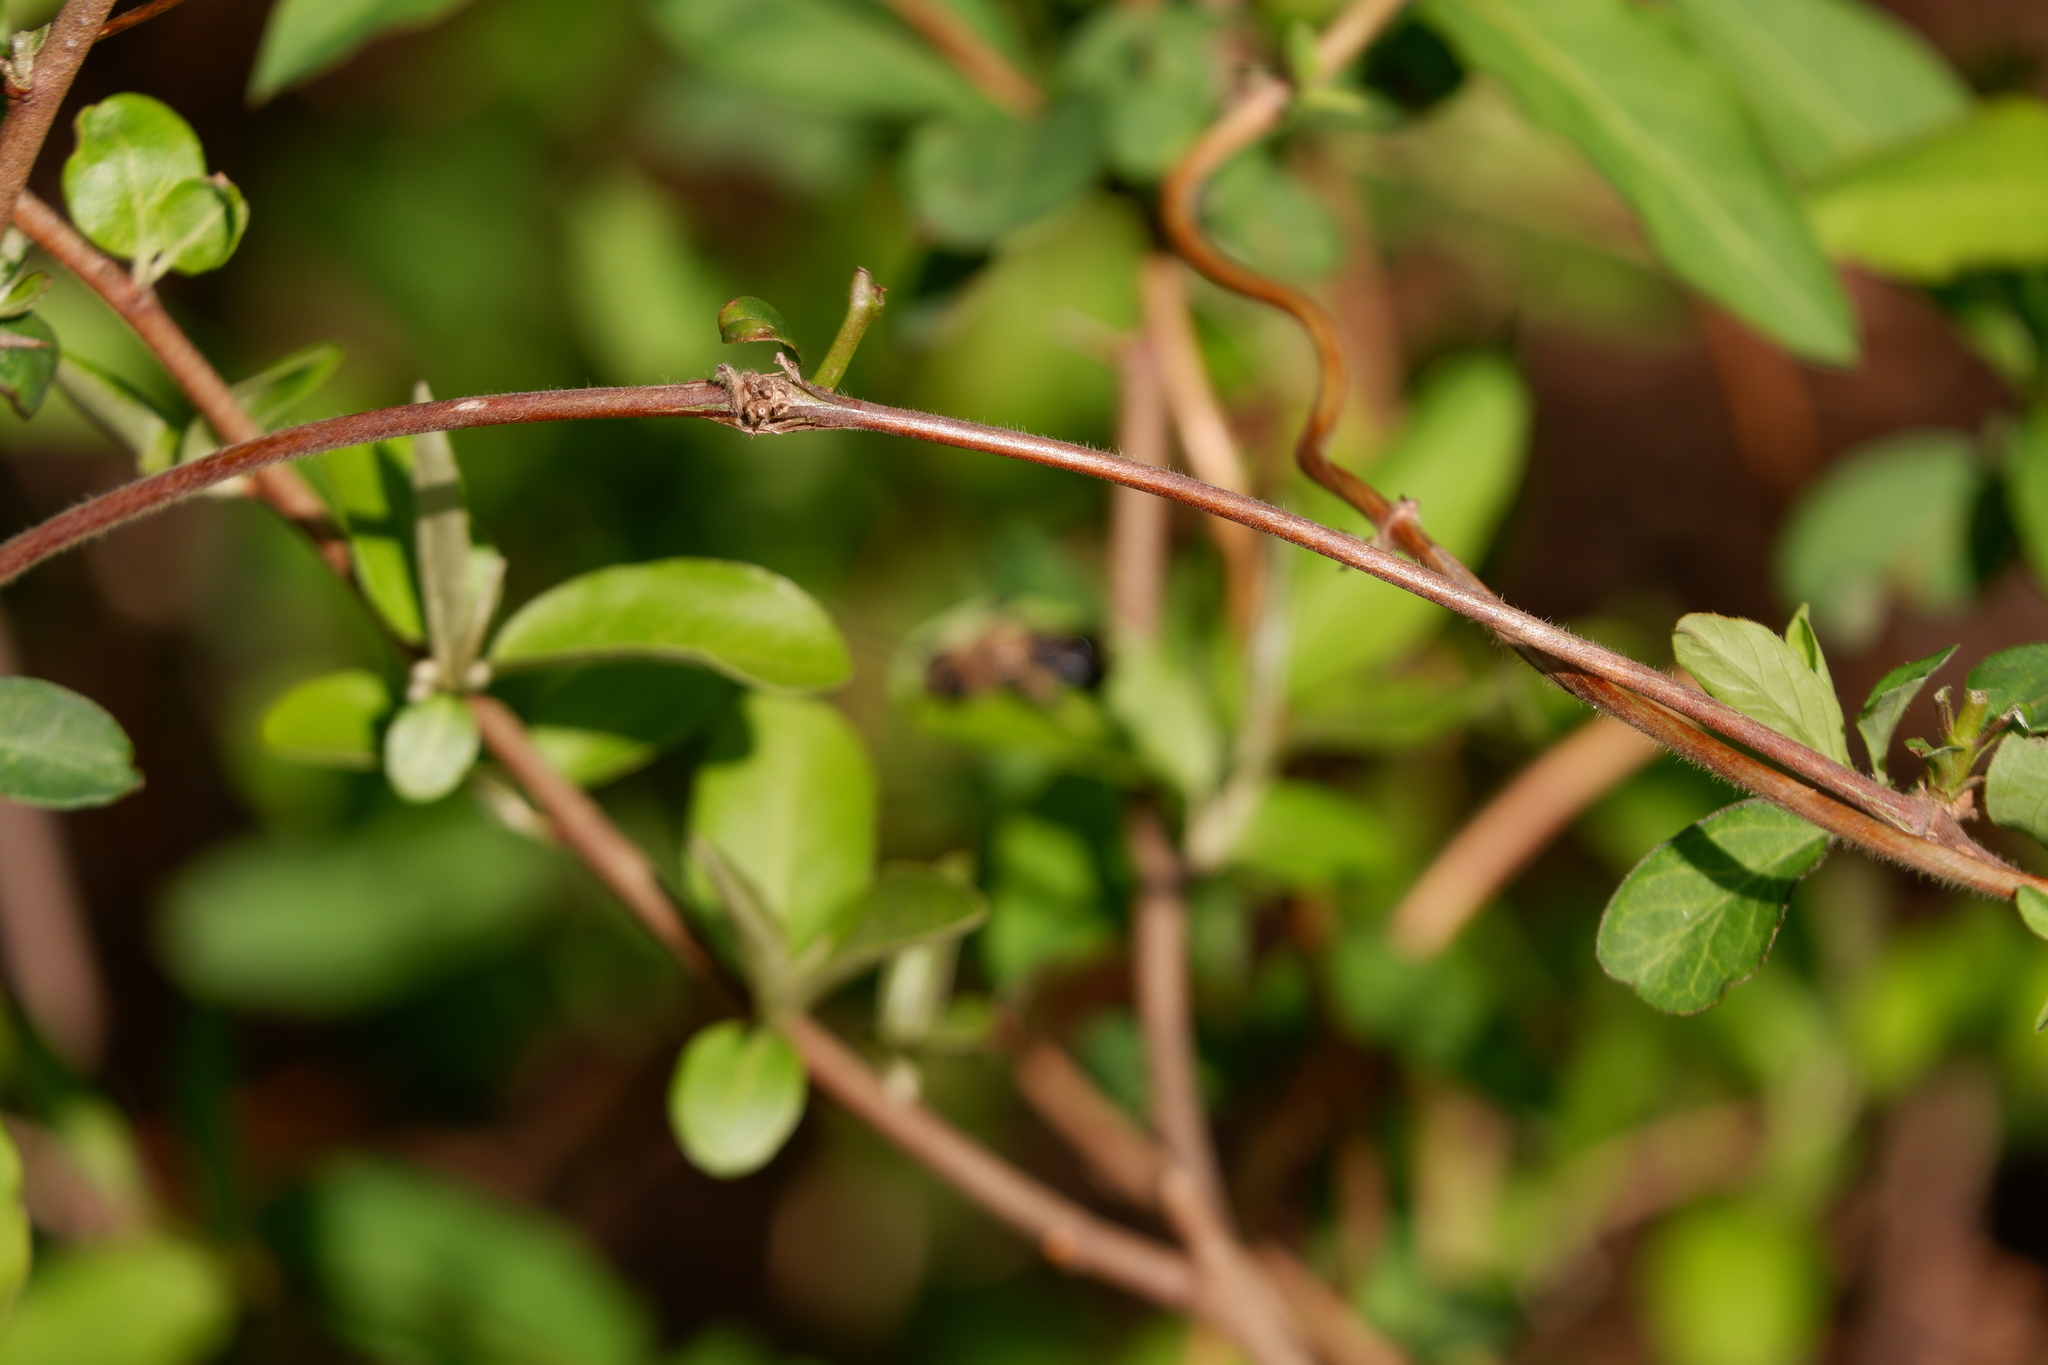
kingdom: Plantae
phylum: Tracheophyta
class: Magnoliopsida
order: Dipsacales
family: Caprifoliaceae
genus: Lonicera
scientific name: Lonicera japonica
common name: Japanese honeysuckle
